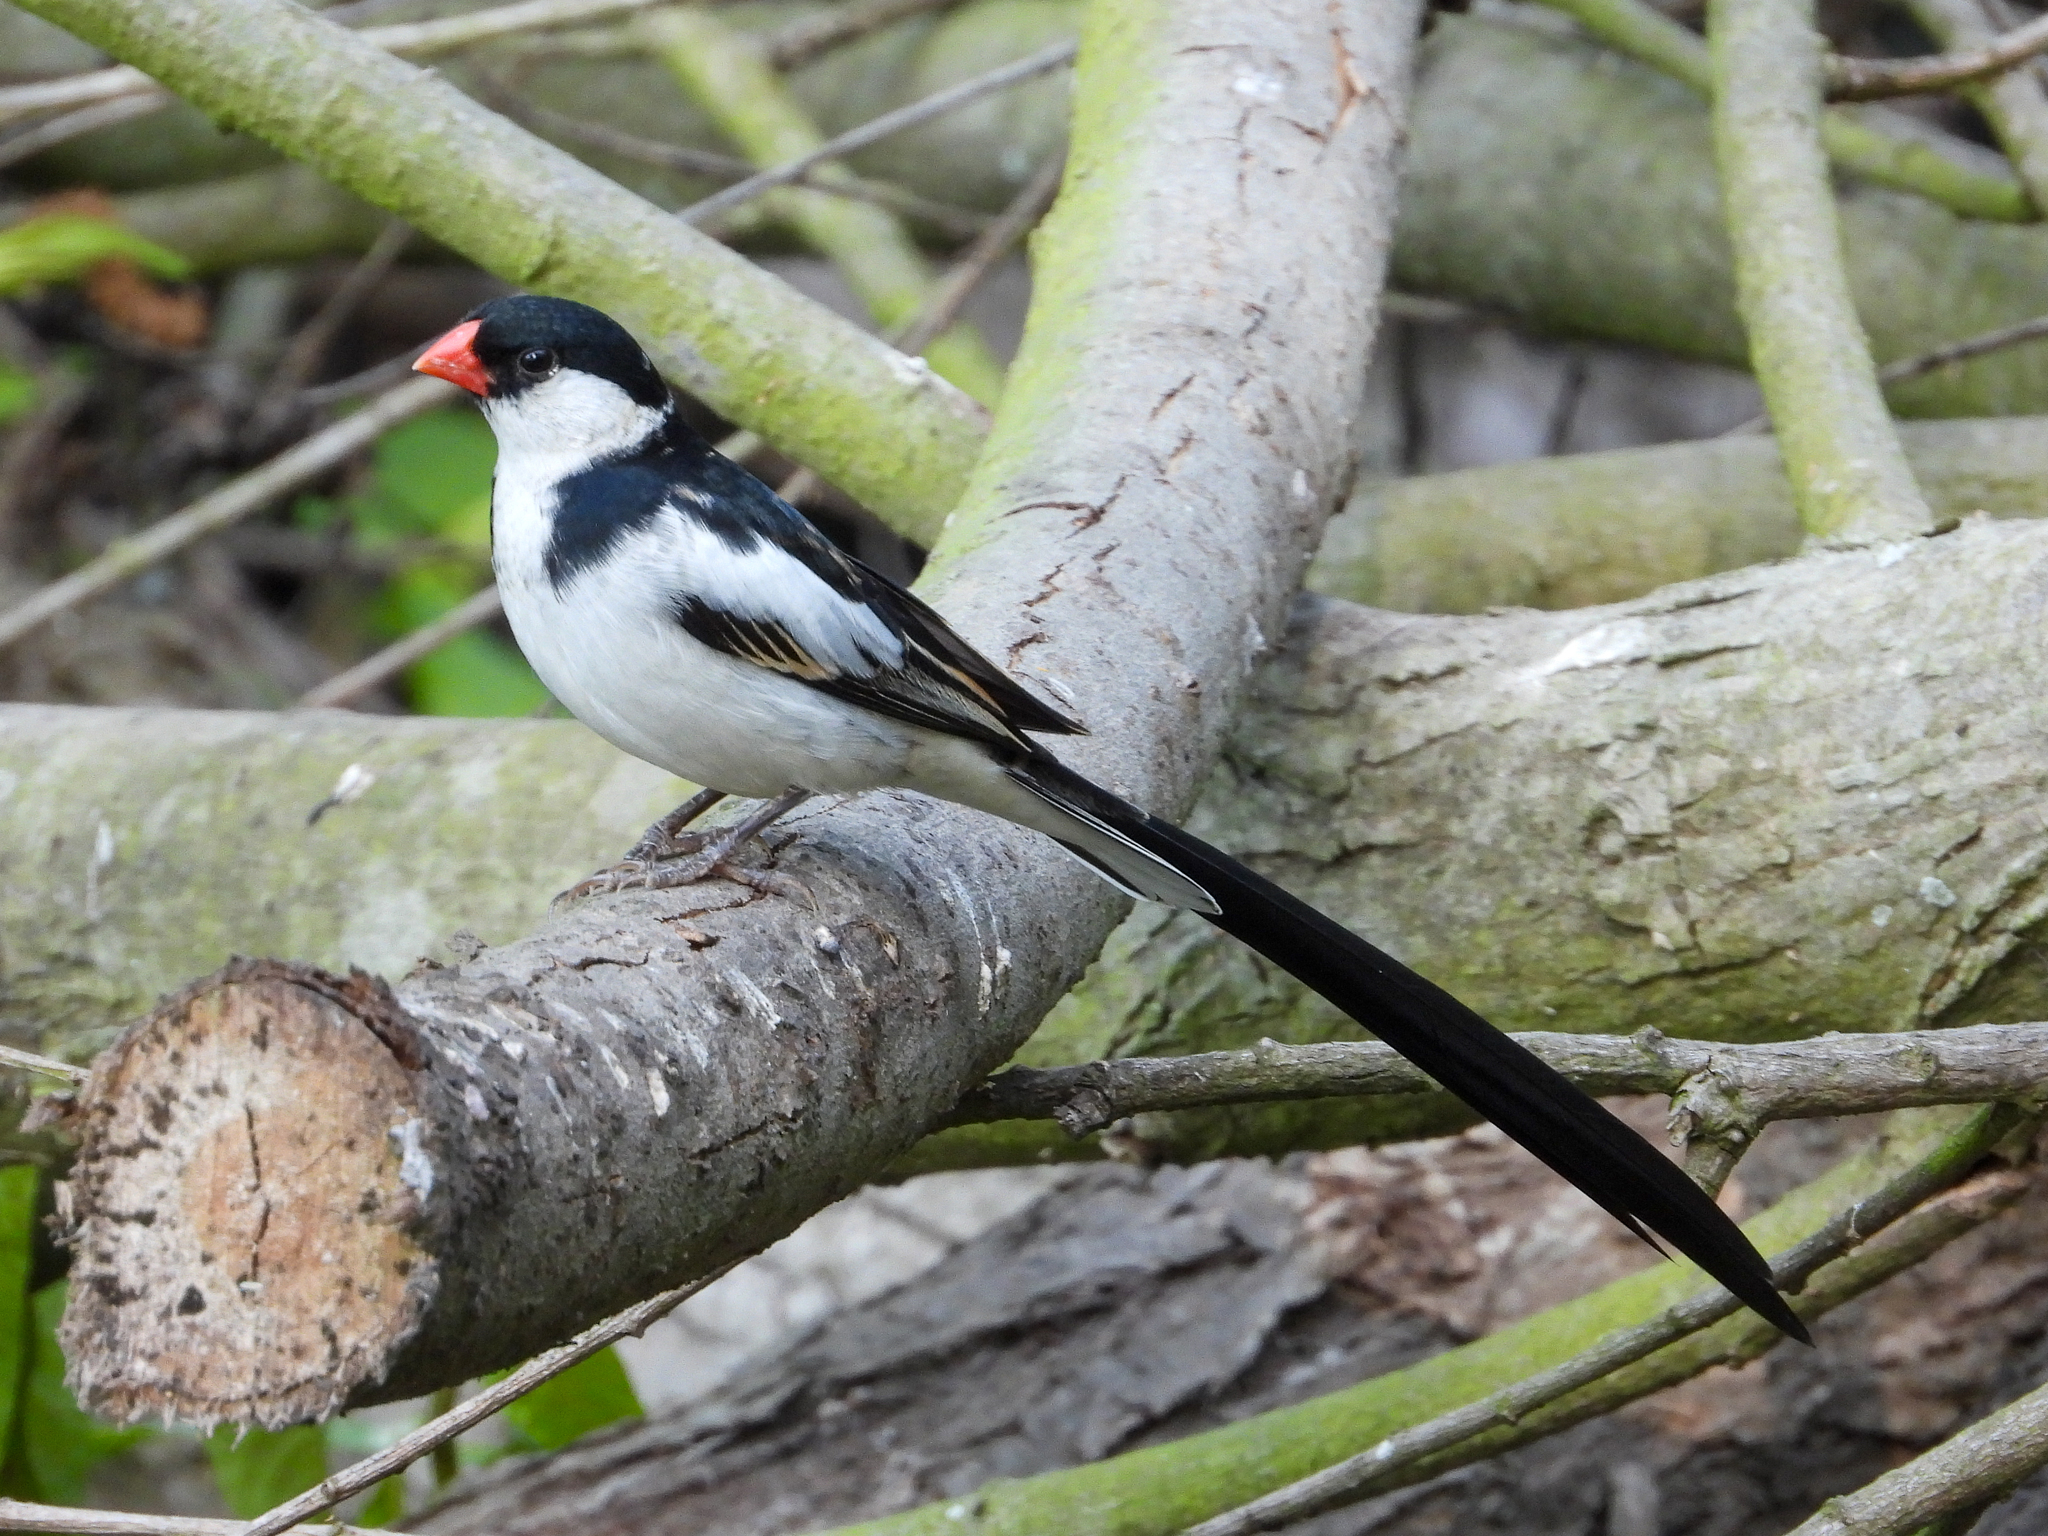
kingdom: Animalia
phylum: Chordata
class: Aves
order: Passeriformes
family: Viduidae
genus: Vidua
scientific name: Vidua macroura
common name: Pin-tailed whydah
